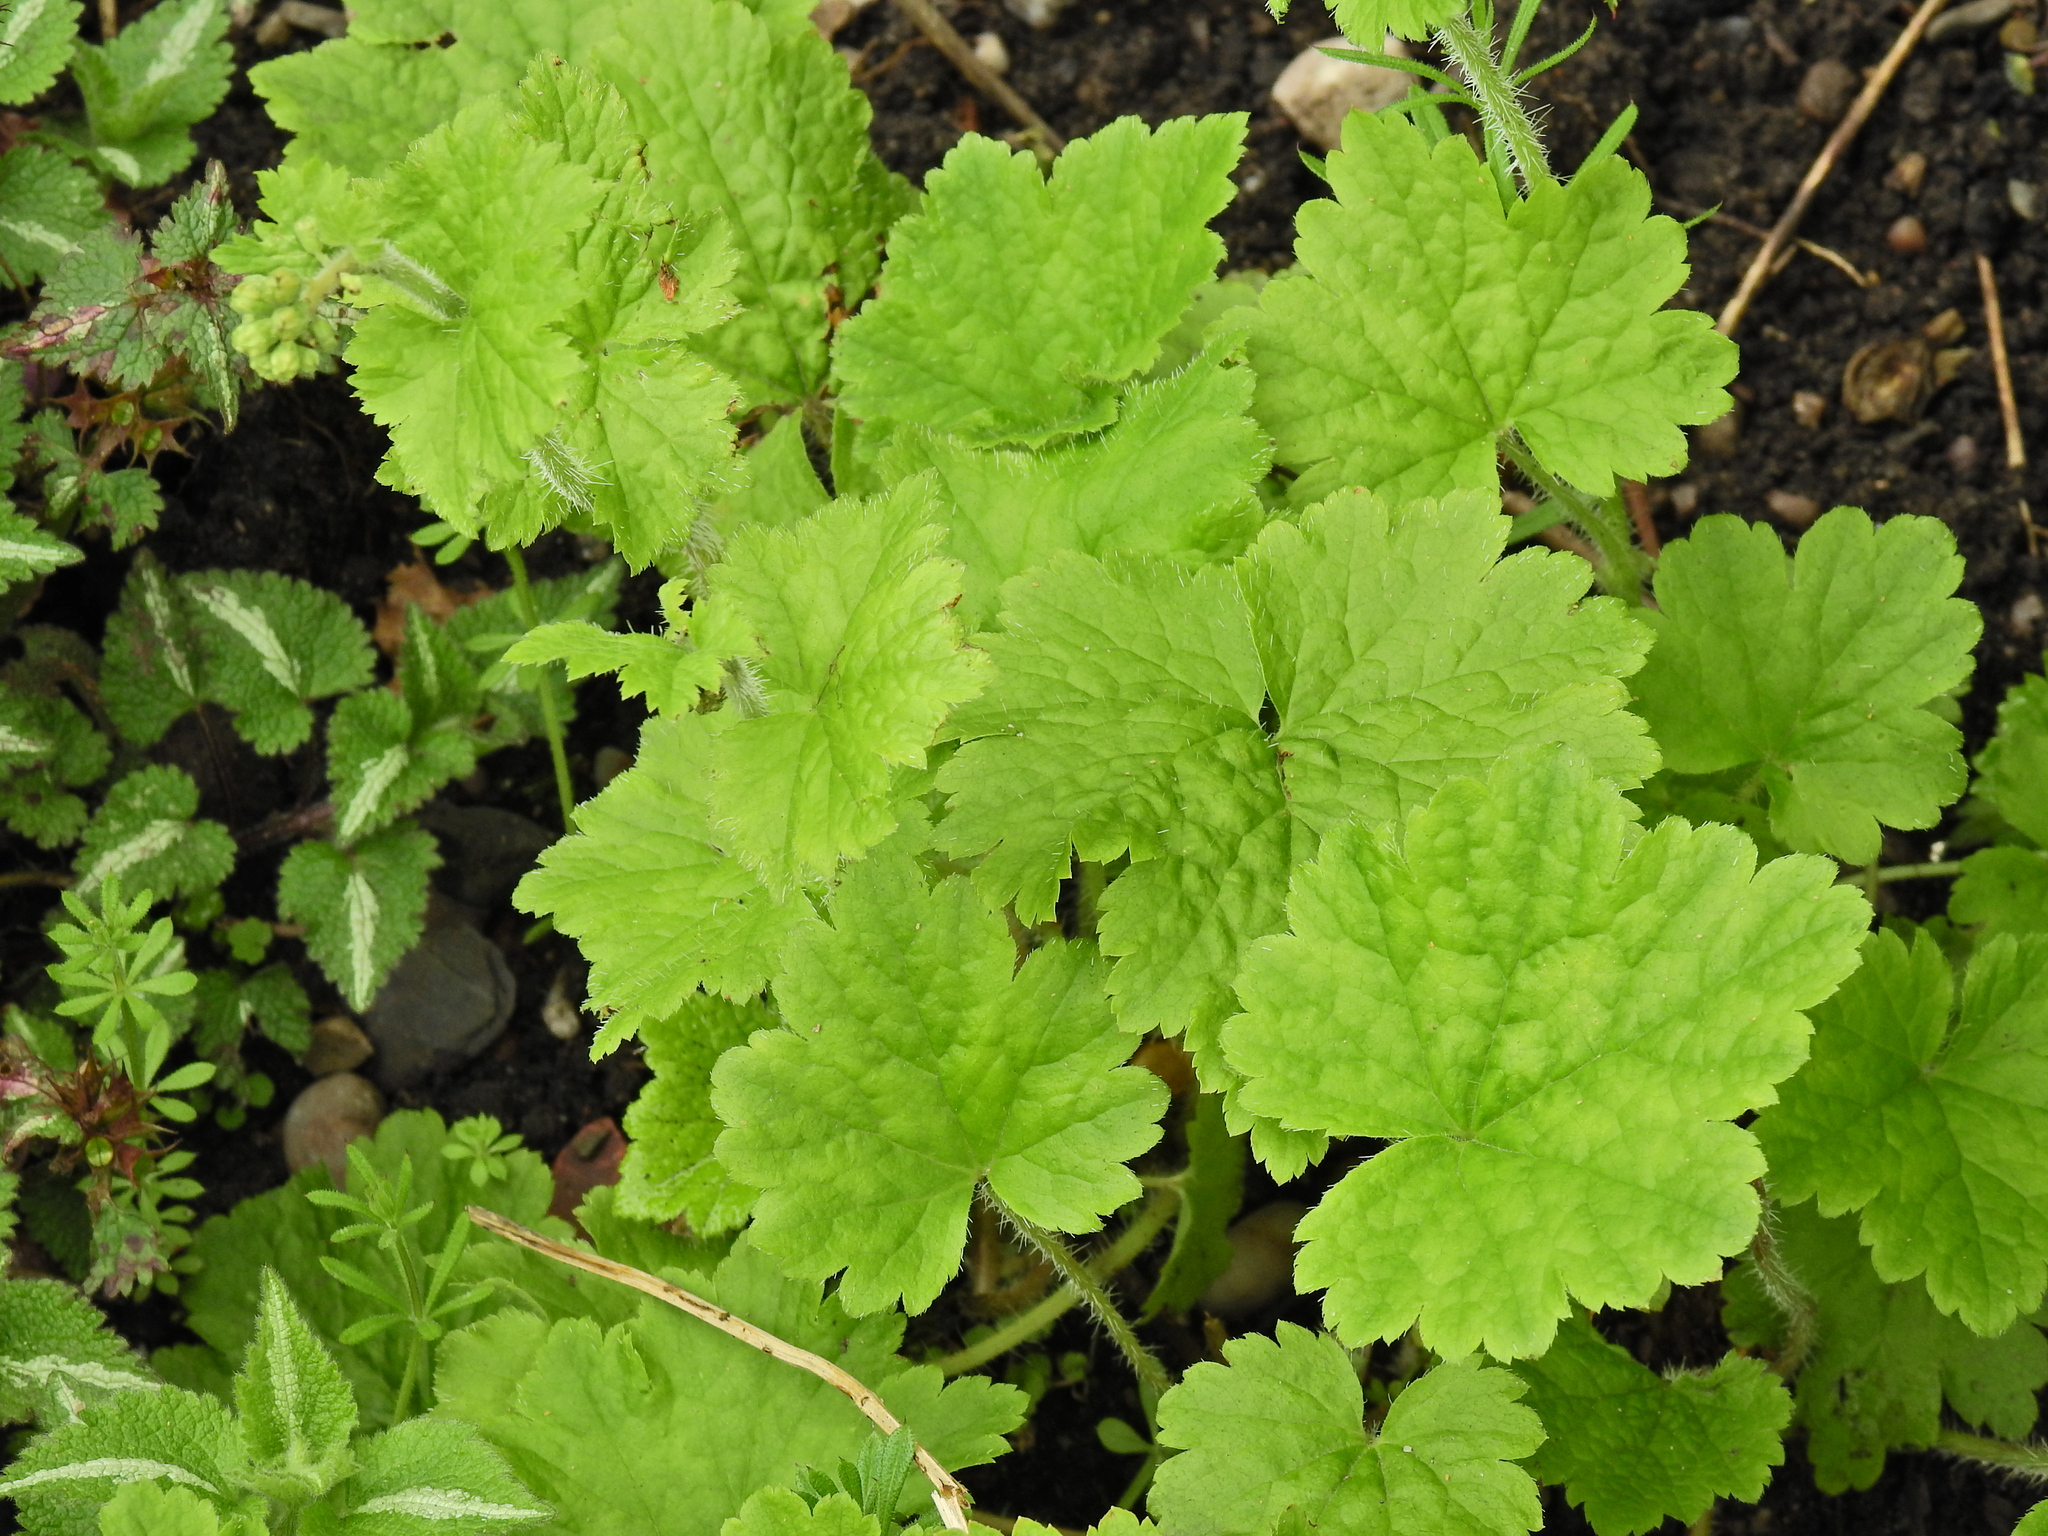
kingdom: Plantae
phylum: Tracheophyta
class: Magnoliopsida
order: Saxifragales
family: Saxifragaceae
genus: Tellima
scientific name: Tellima grandiflora
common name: Fringecups
